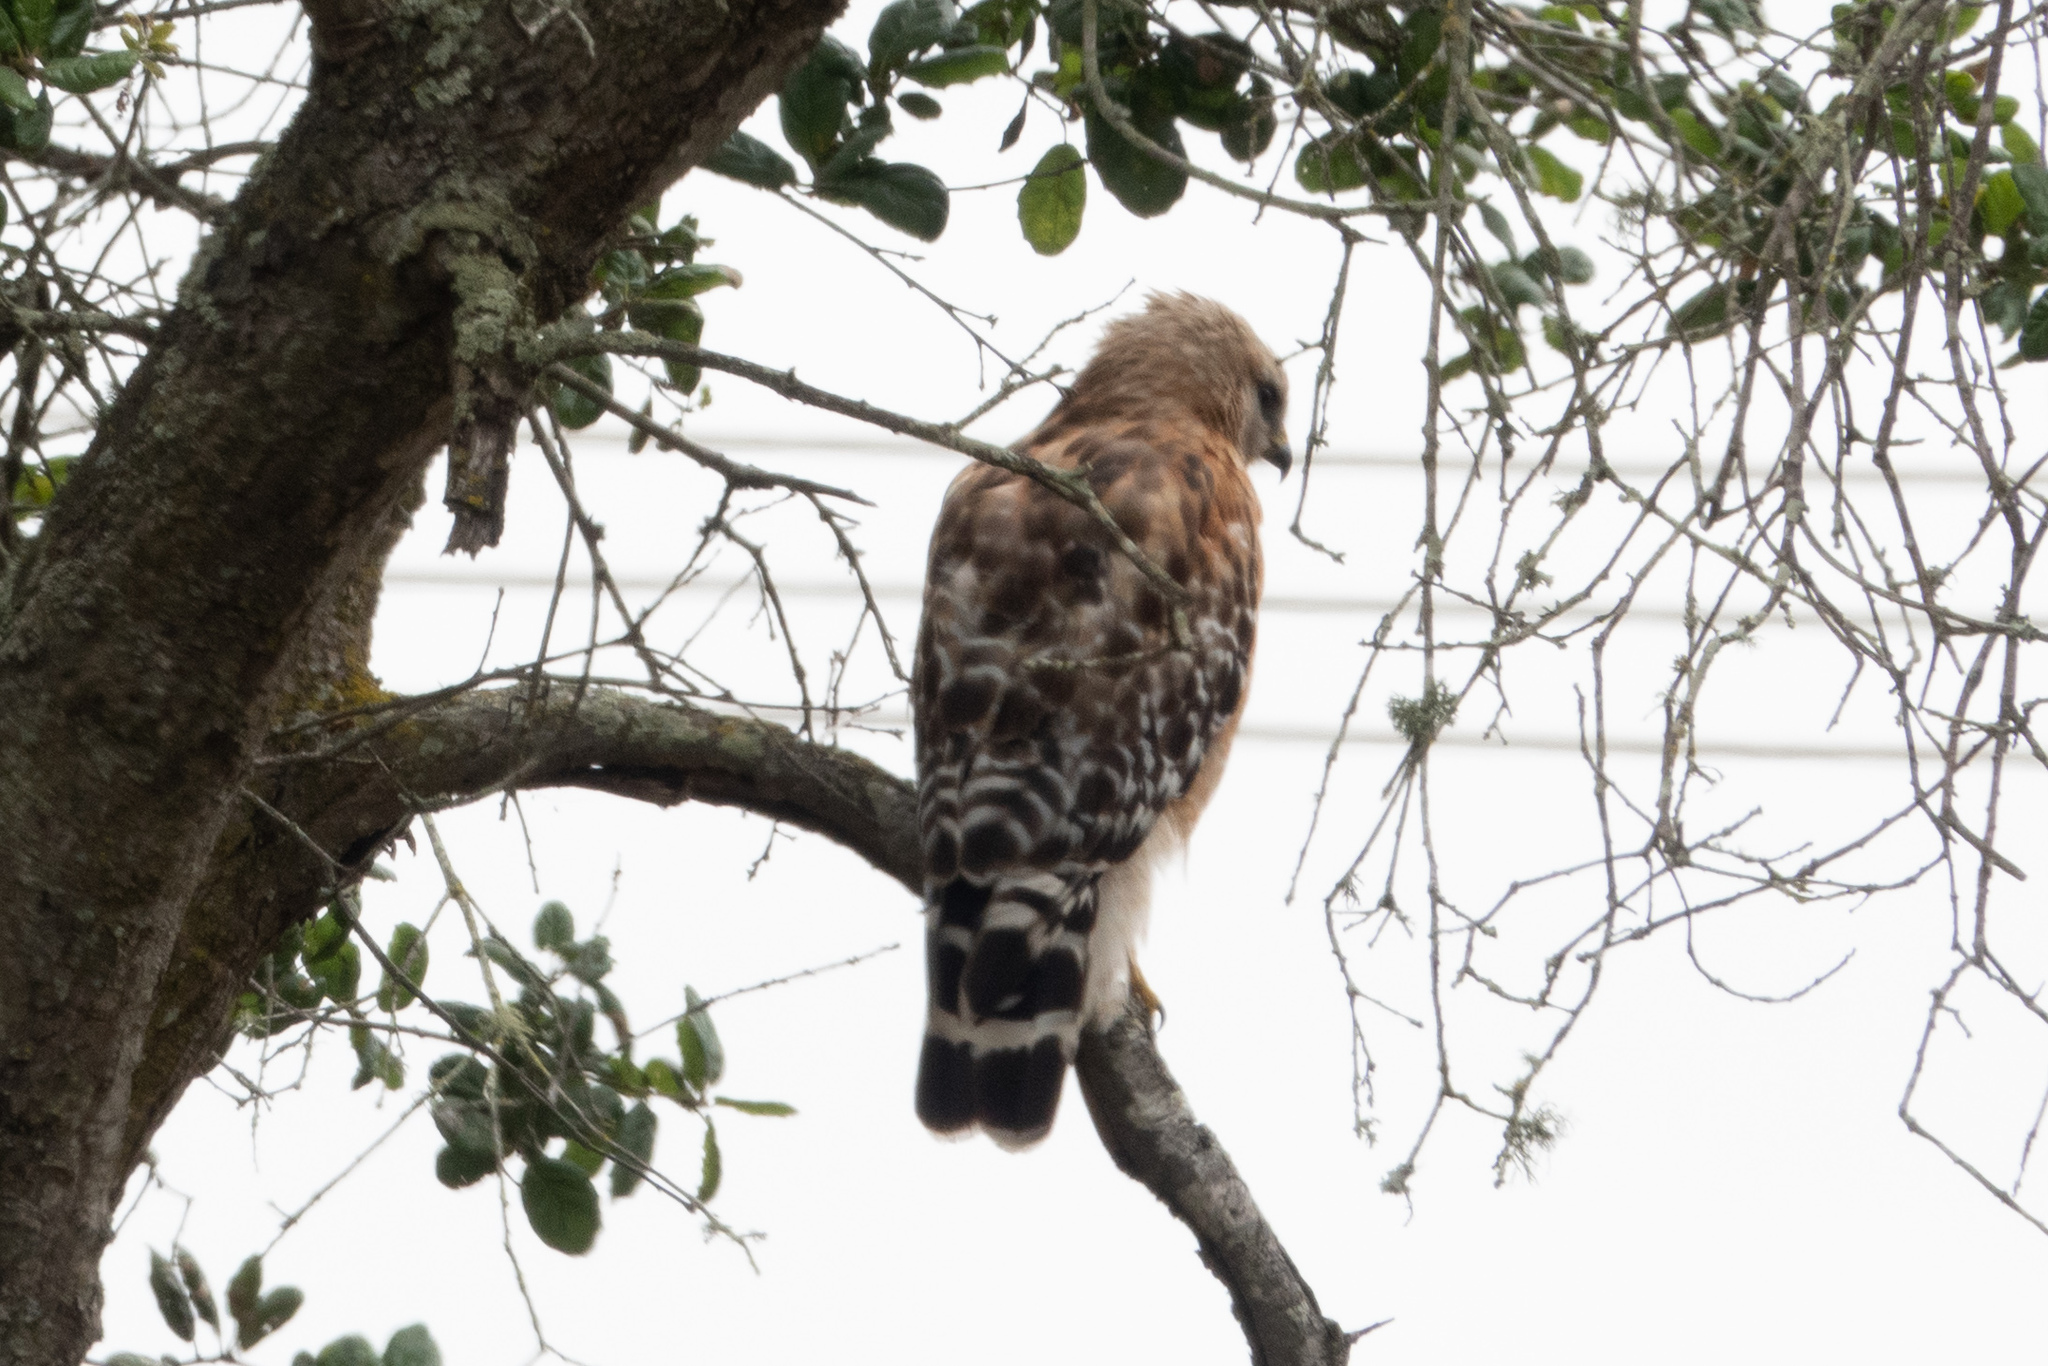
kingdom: Animalia
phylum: Chordata
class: Aves
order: Accipitriformes
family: Accipitridae
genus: Buteo
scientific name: Buteo lineatus
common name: Red-shouldered hawk
